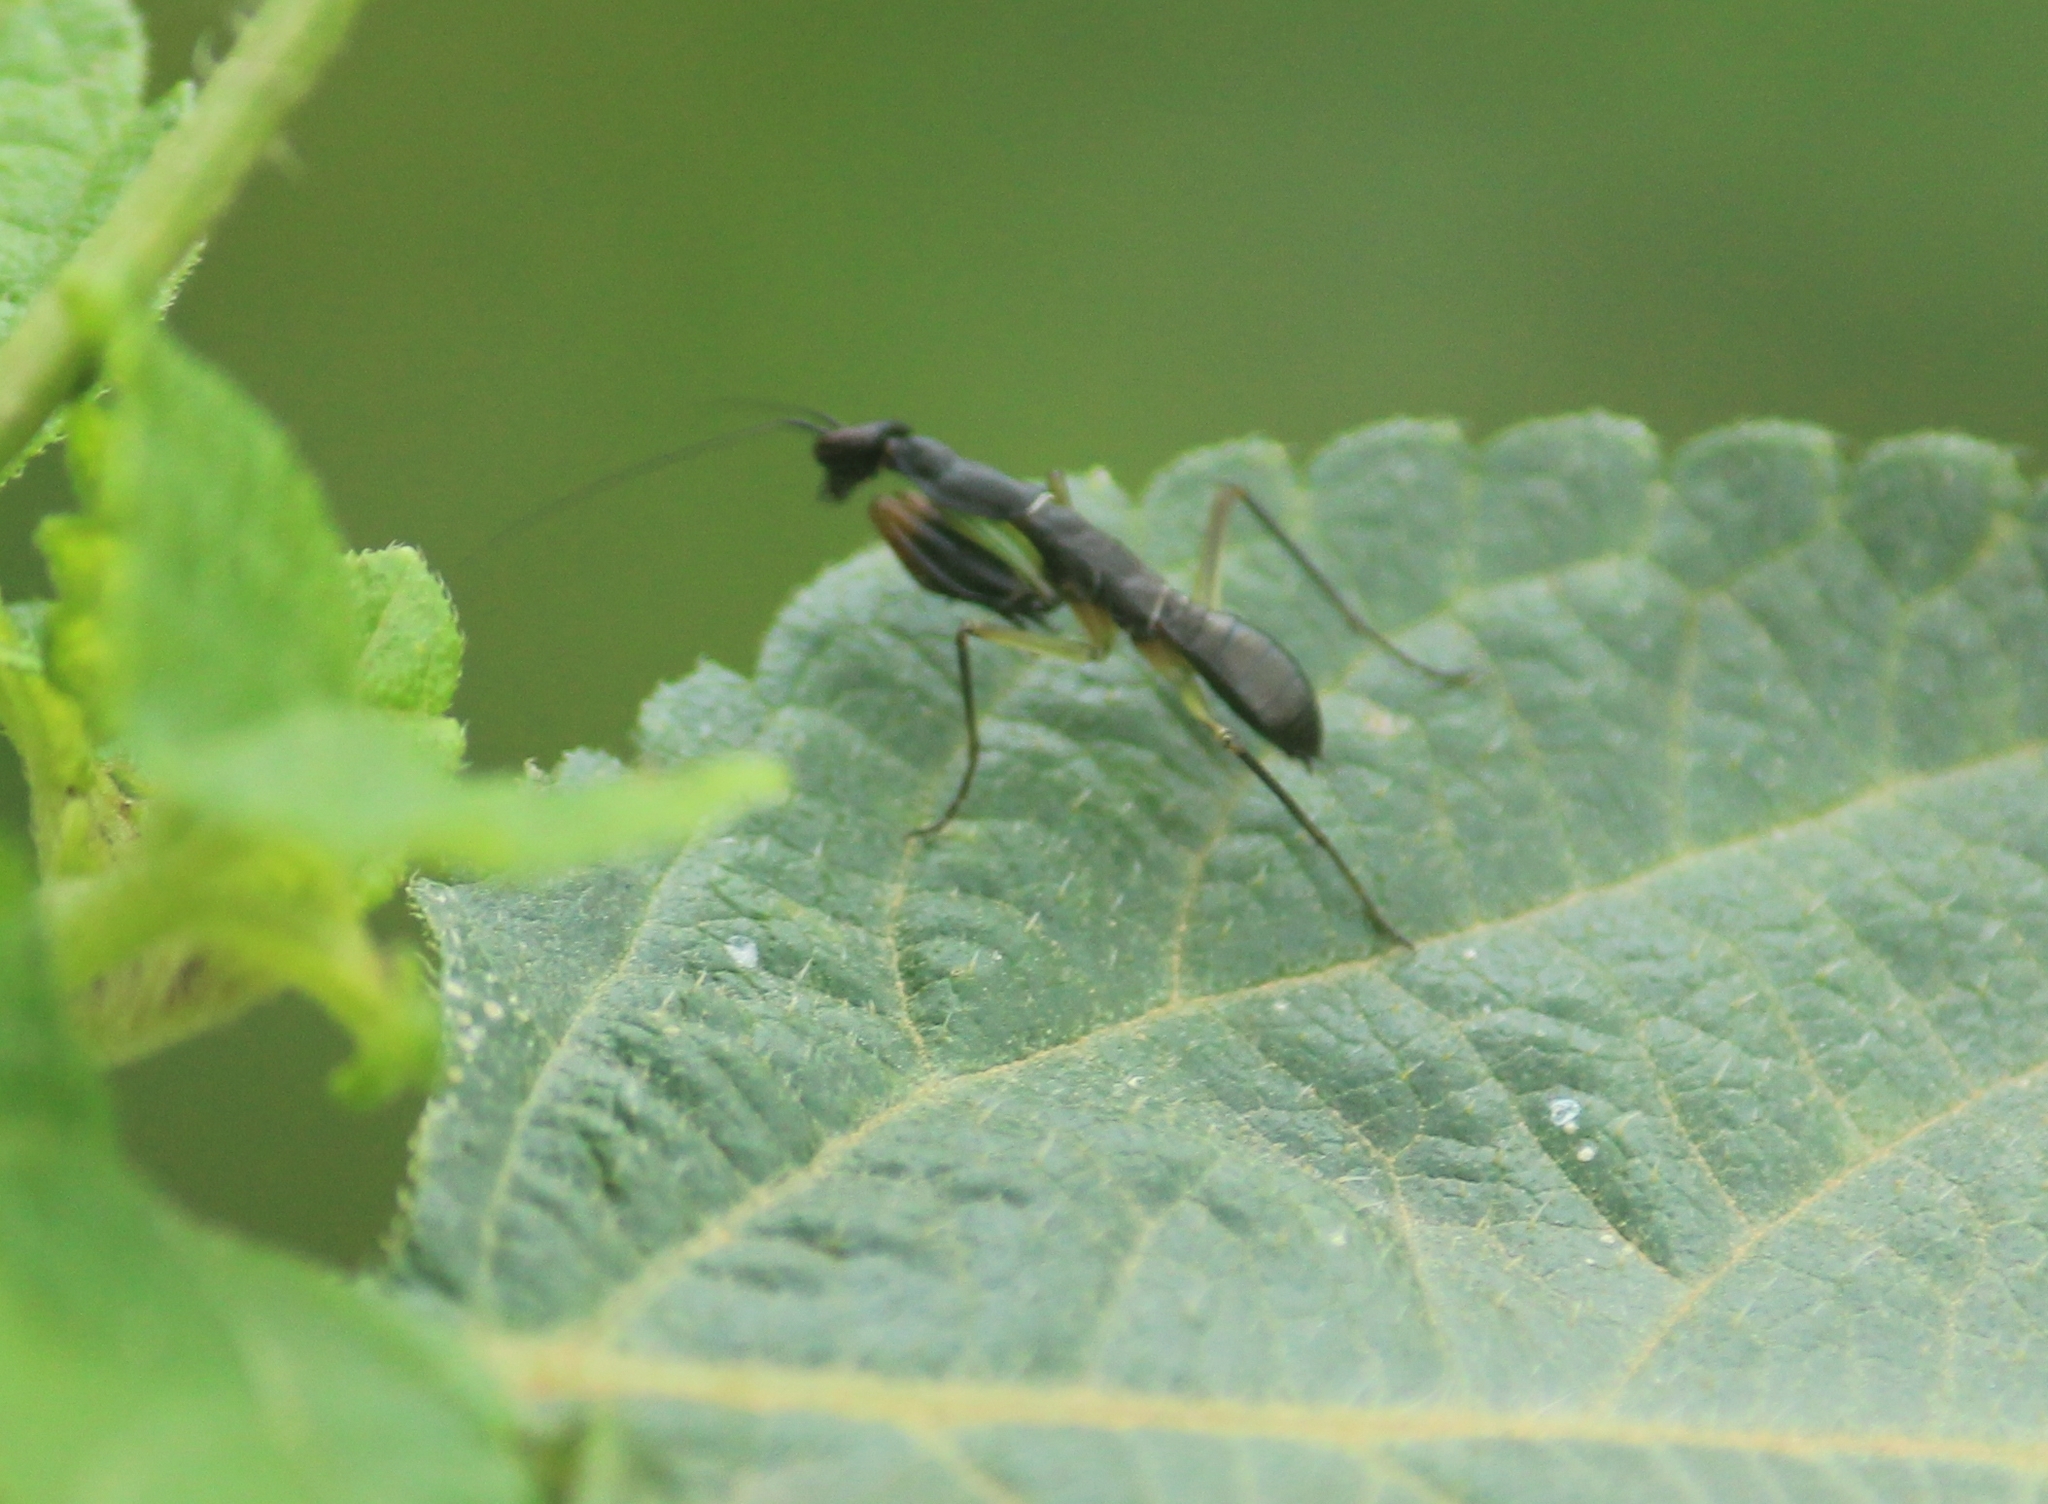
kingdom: Animalia
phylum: Arthropoda
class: Insecta
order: Mantodea
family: Hymenopodidae
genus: Odontomantis
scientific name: Odontomantis planiceps
